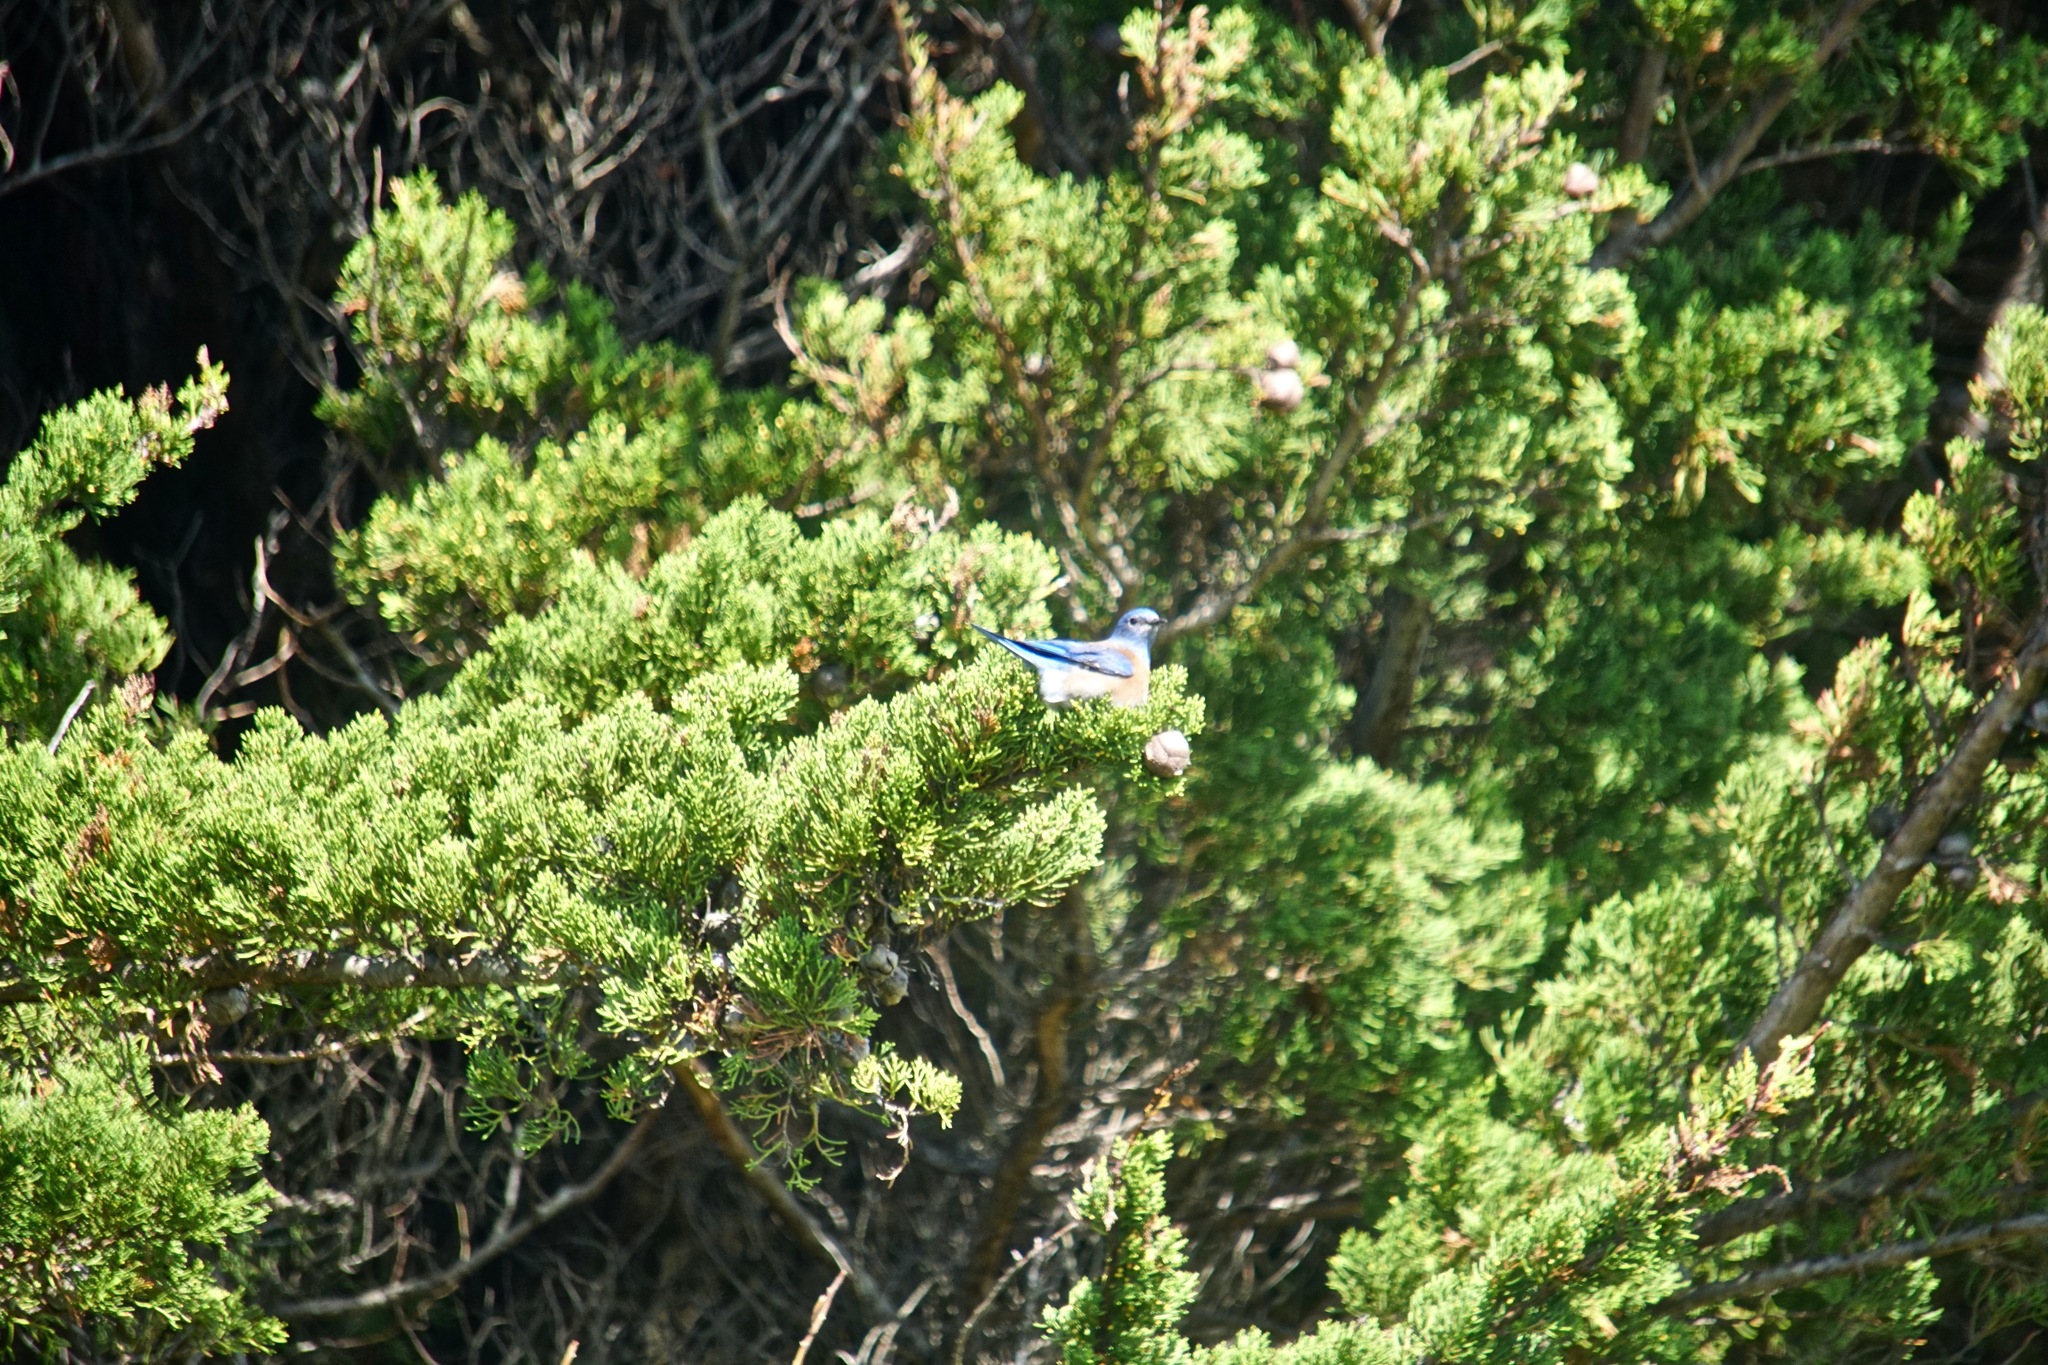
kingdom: Animalia
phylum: Chordata
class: Aves
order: Passeriformes
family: Turdidae
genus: Sialia
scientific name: Sialia mexicana
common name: Western bluebird
